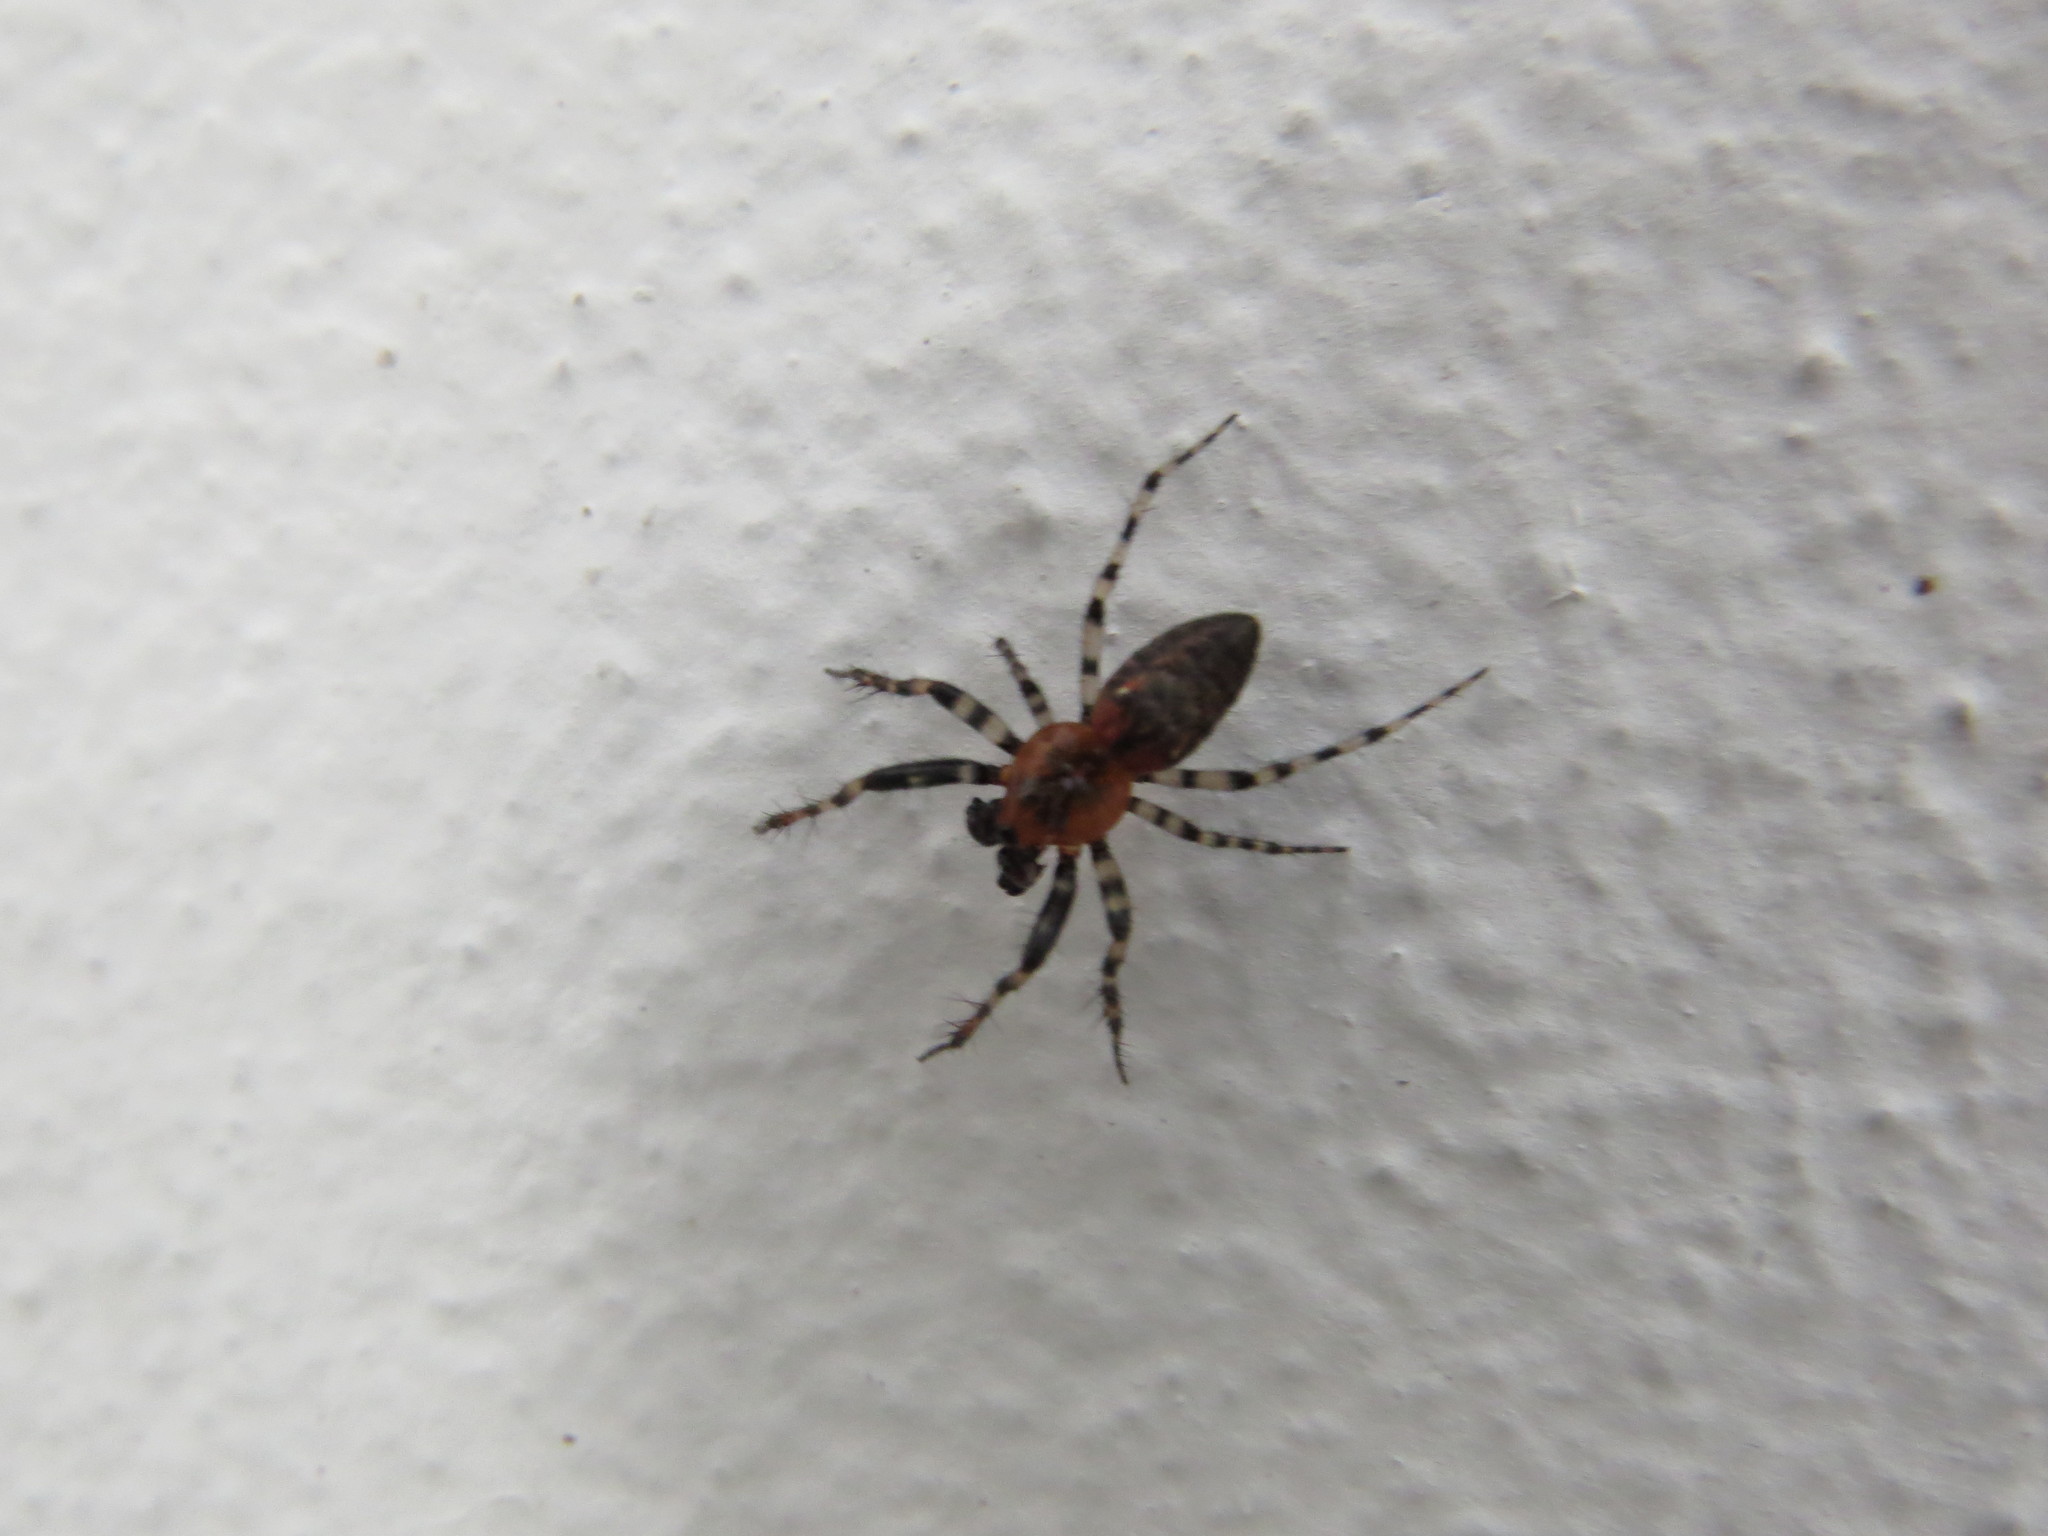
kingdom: Animalia
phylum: Arthropoda
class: Arachnida
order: Araneae
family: Araneidae
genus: Alpaida
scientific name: Alpaida gallardoi
